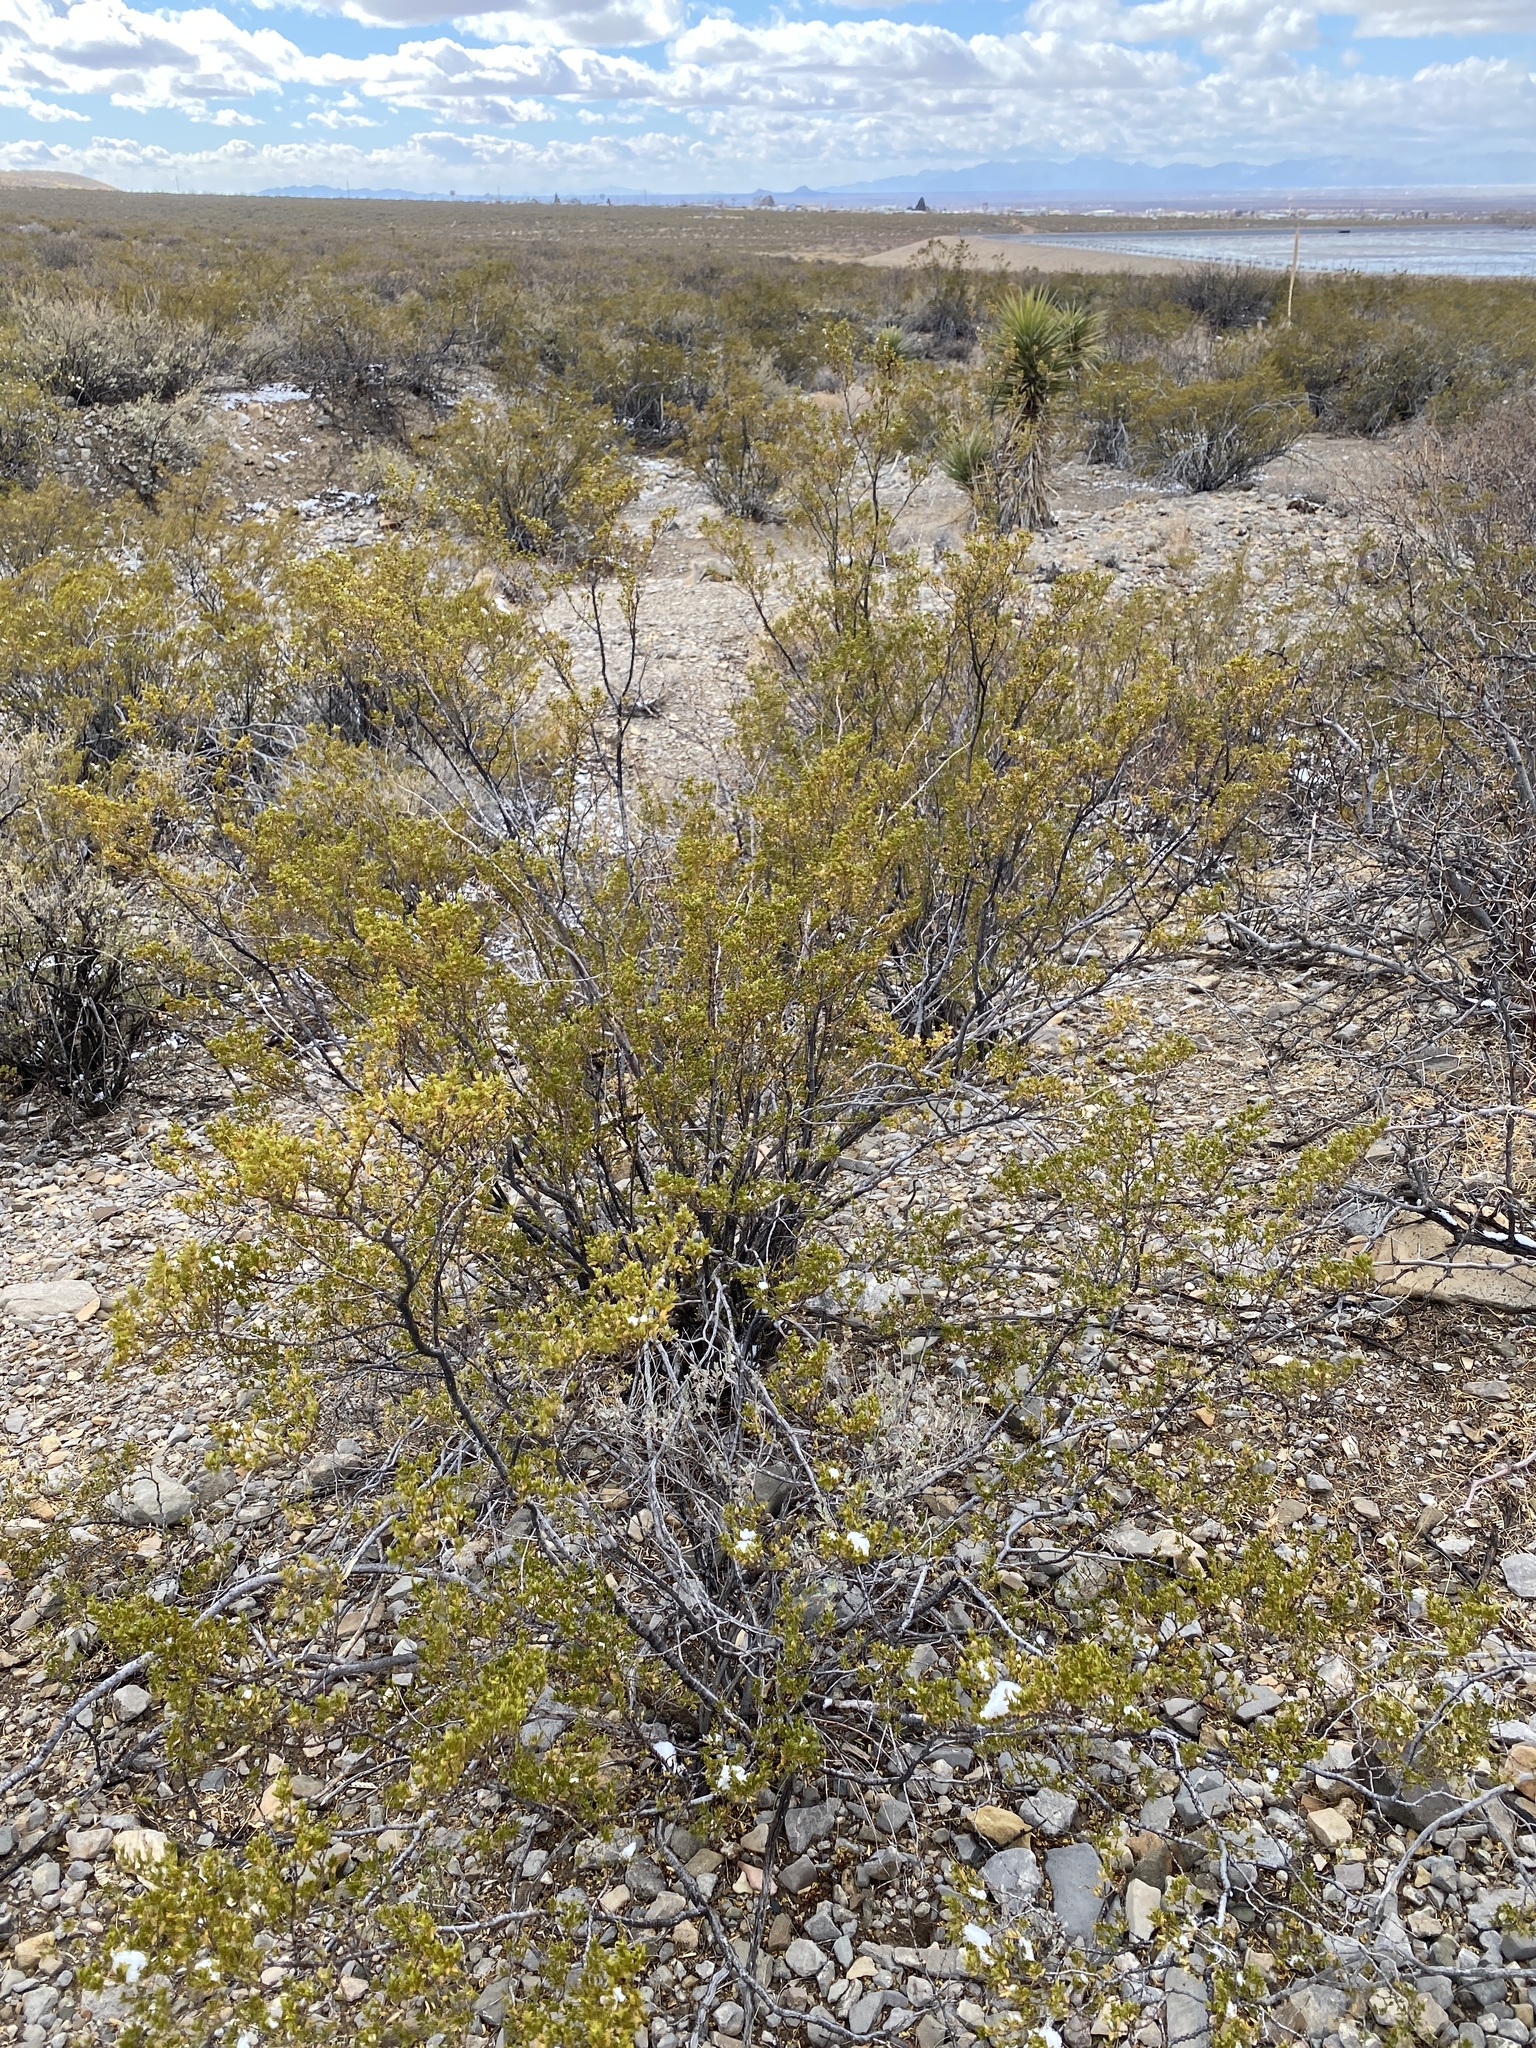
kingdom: Plantae
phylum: Tracheophyta
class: Magnoliopsida
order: Zygophyllales
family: Zygophyllaceae
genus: Larrea
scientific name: Larrea tridentata
